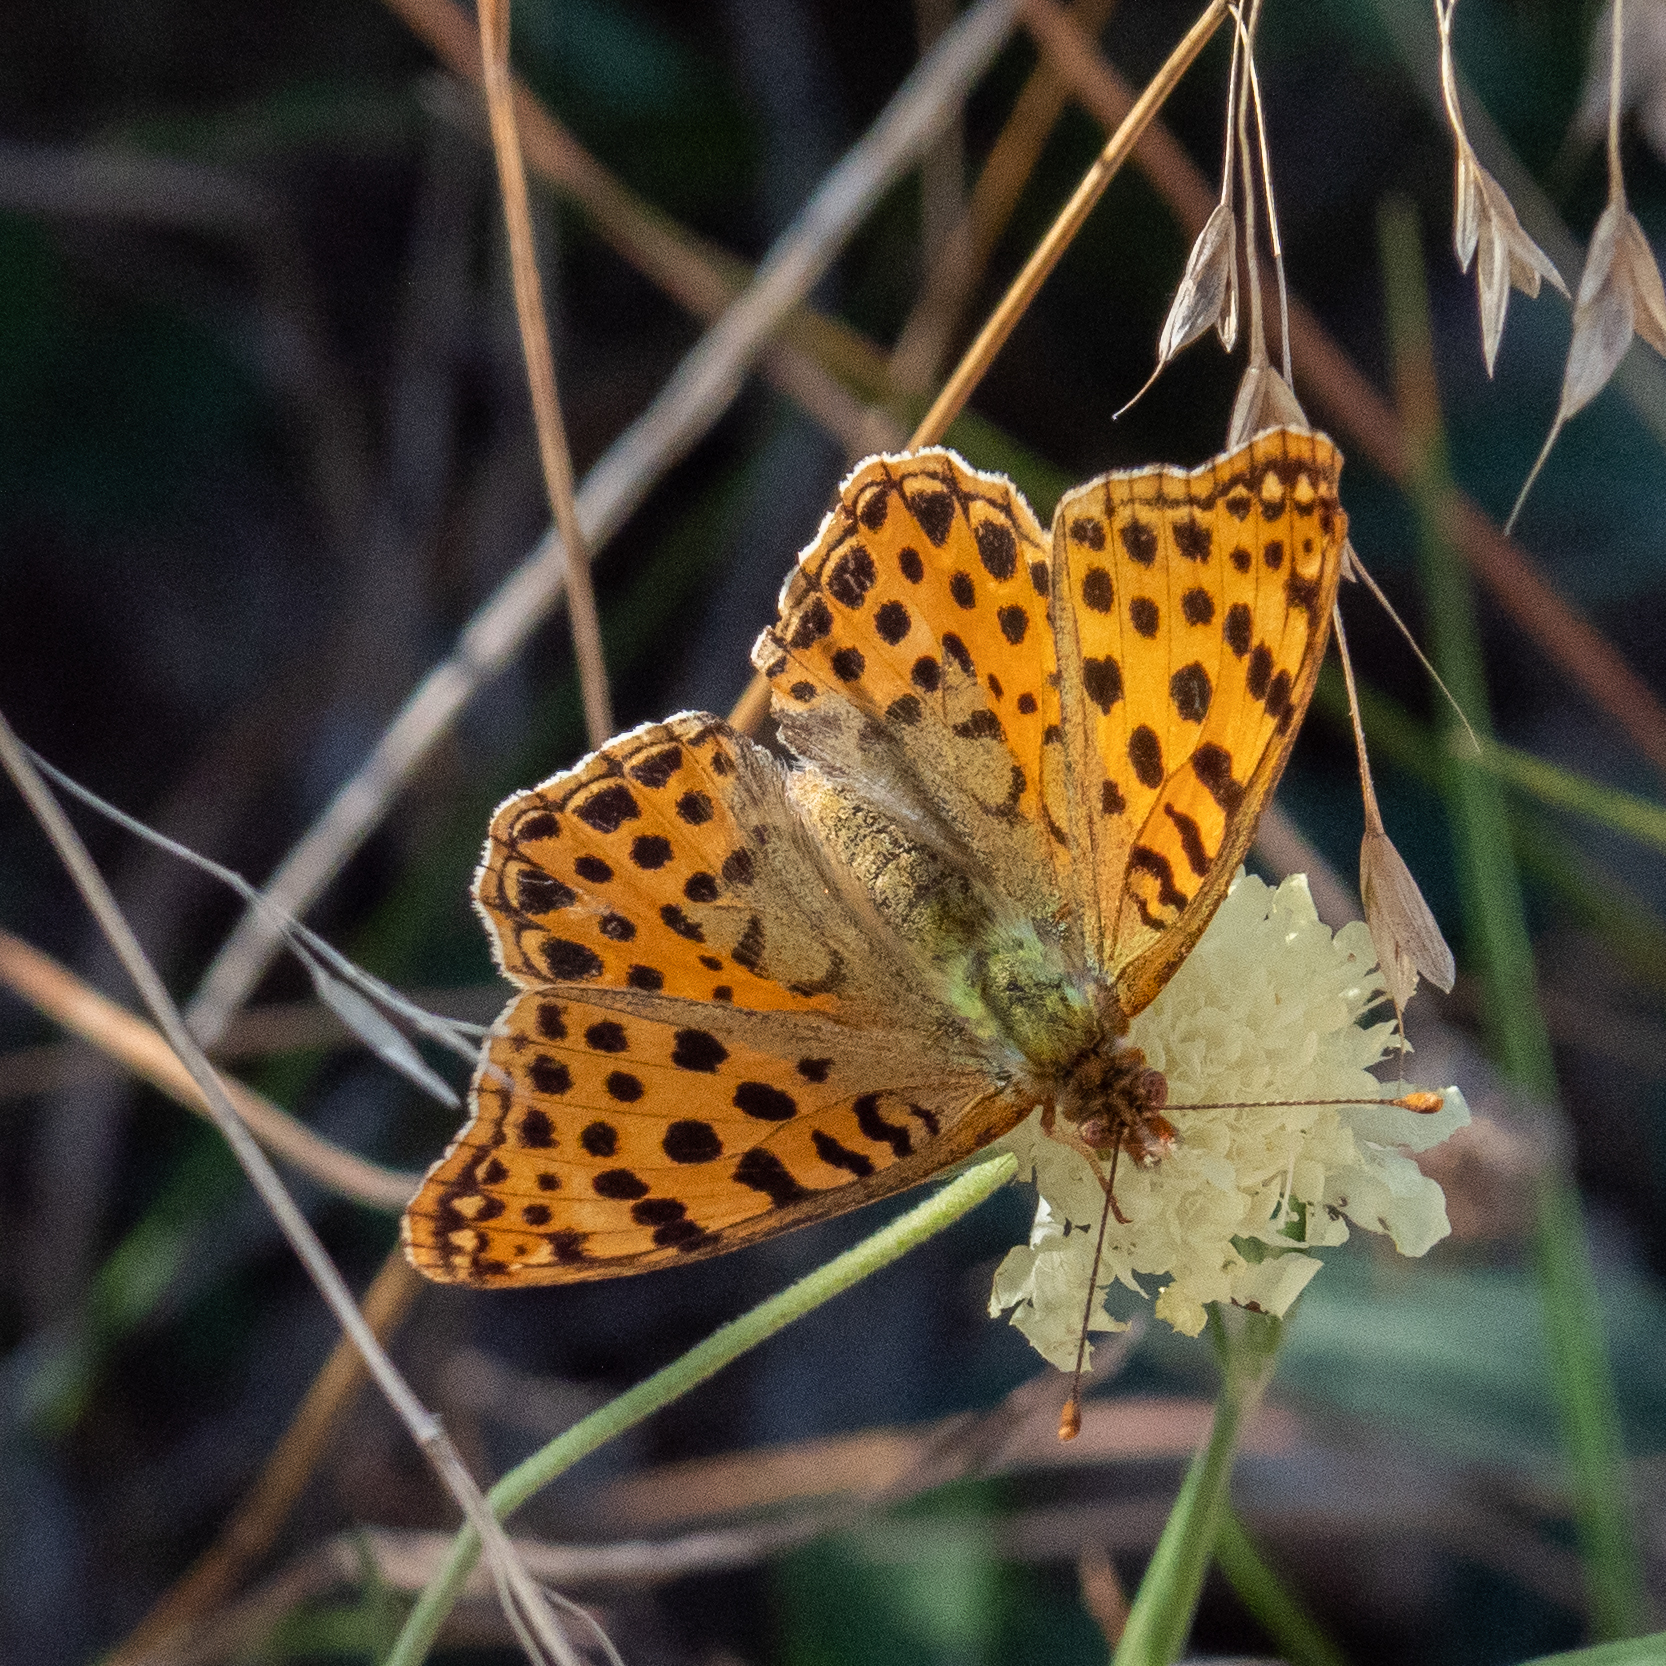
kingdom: Animalia
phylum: Arthropoda
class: Insecta
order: Lepidoptera
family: Nymphalidae
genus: Issoria
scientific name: Issoria lathonia
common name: Queen of spain fritillary
